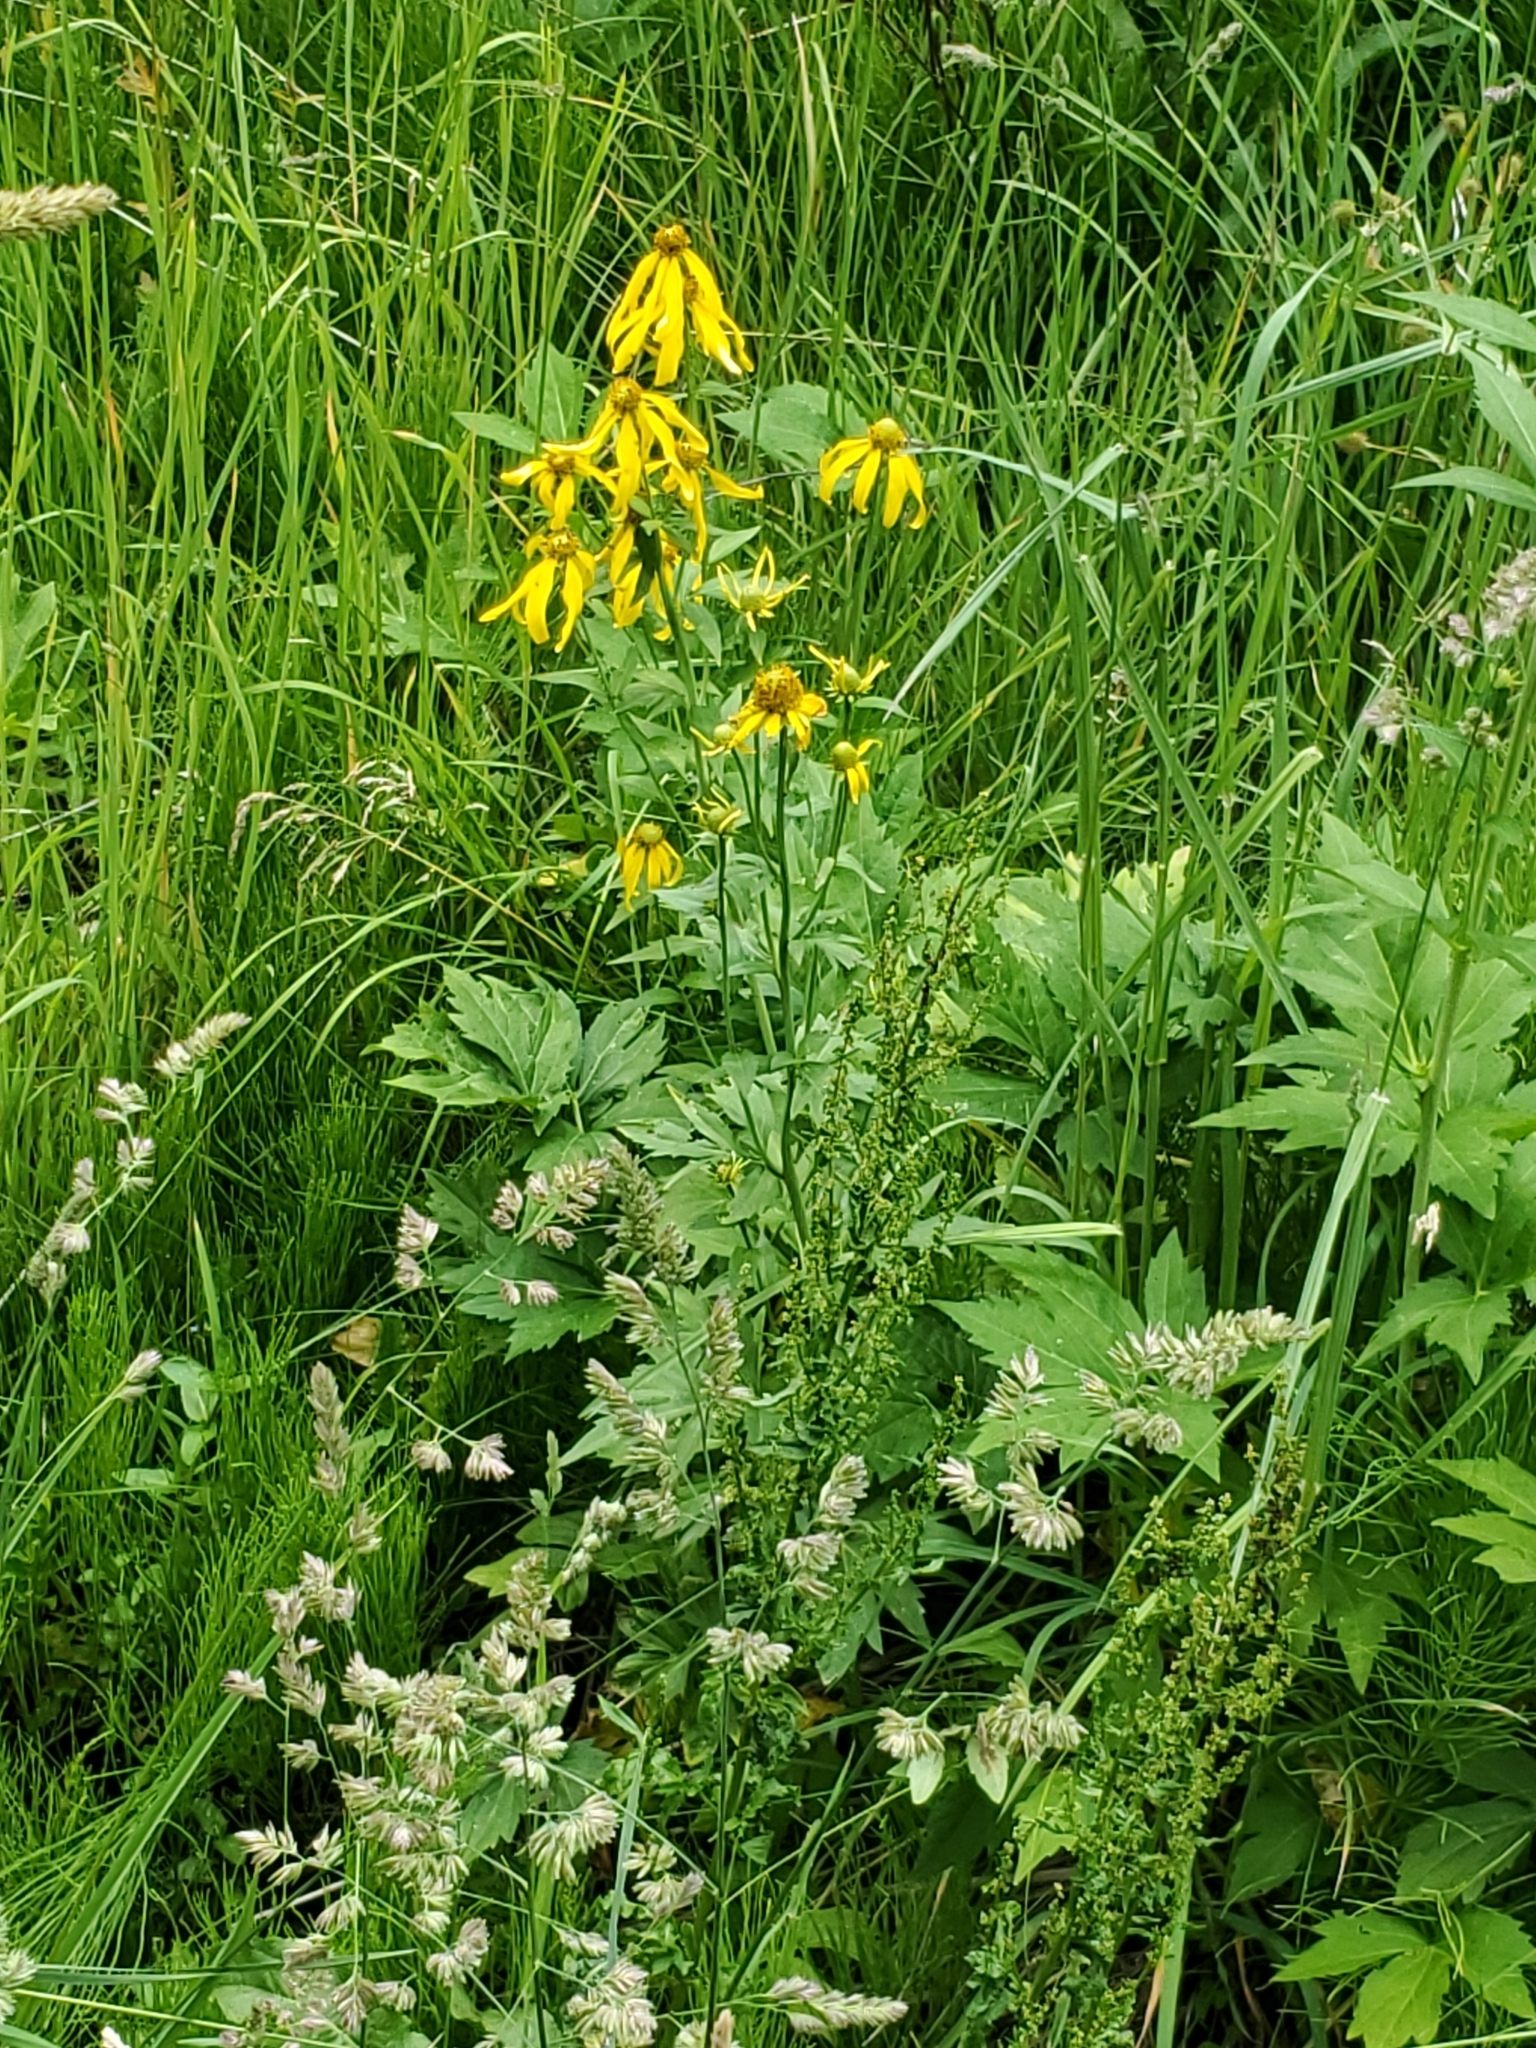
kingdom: Plantae
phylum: Tracheophyta
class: Magnoliopsida
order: Asterales
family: Asteraceae
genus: Rudbeckia
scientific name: Rudbeckia laciniata
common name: Coneflower
